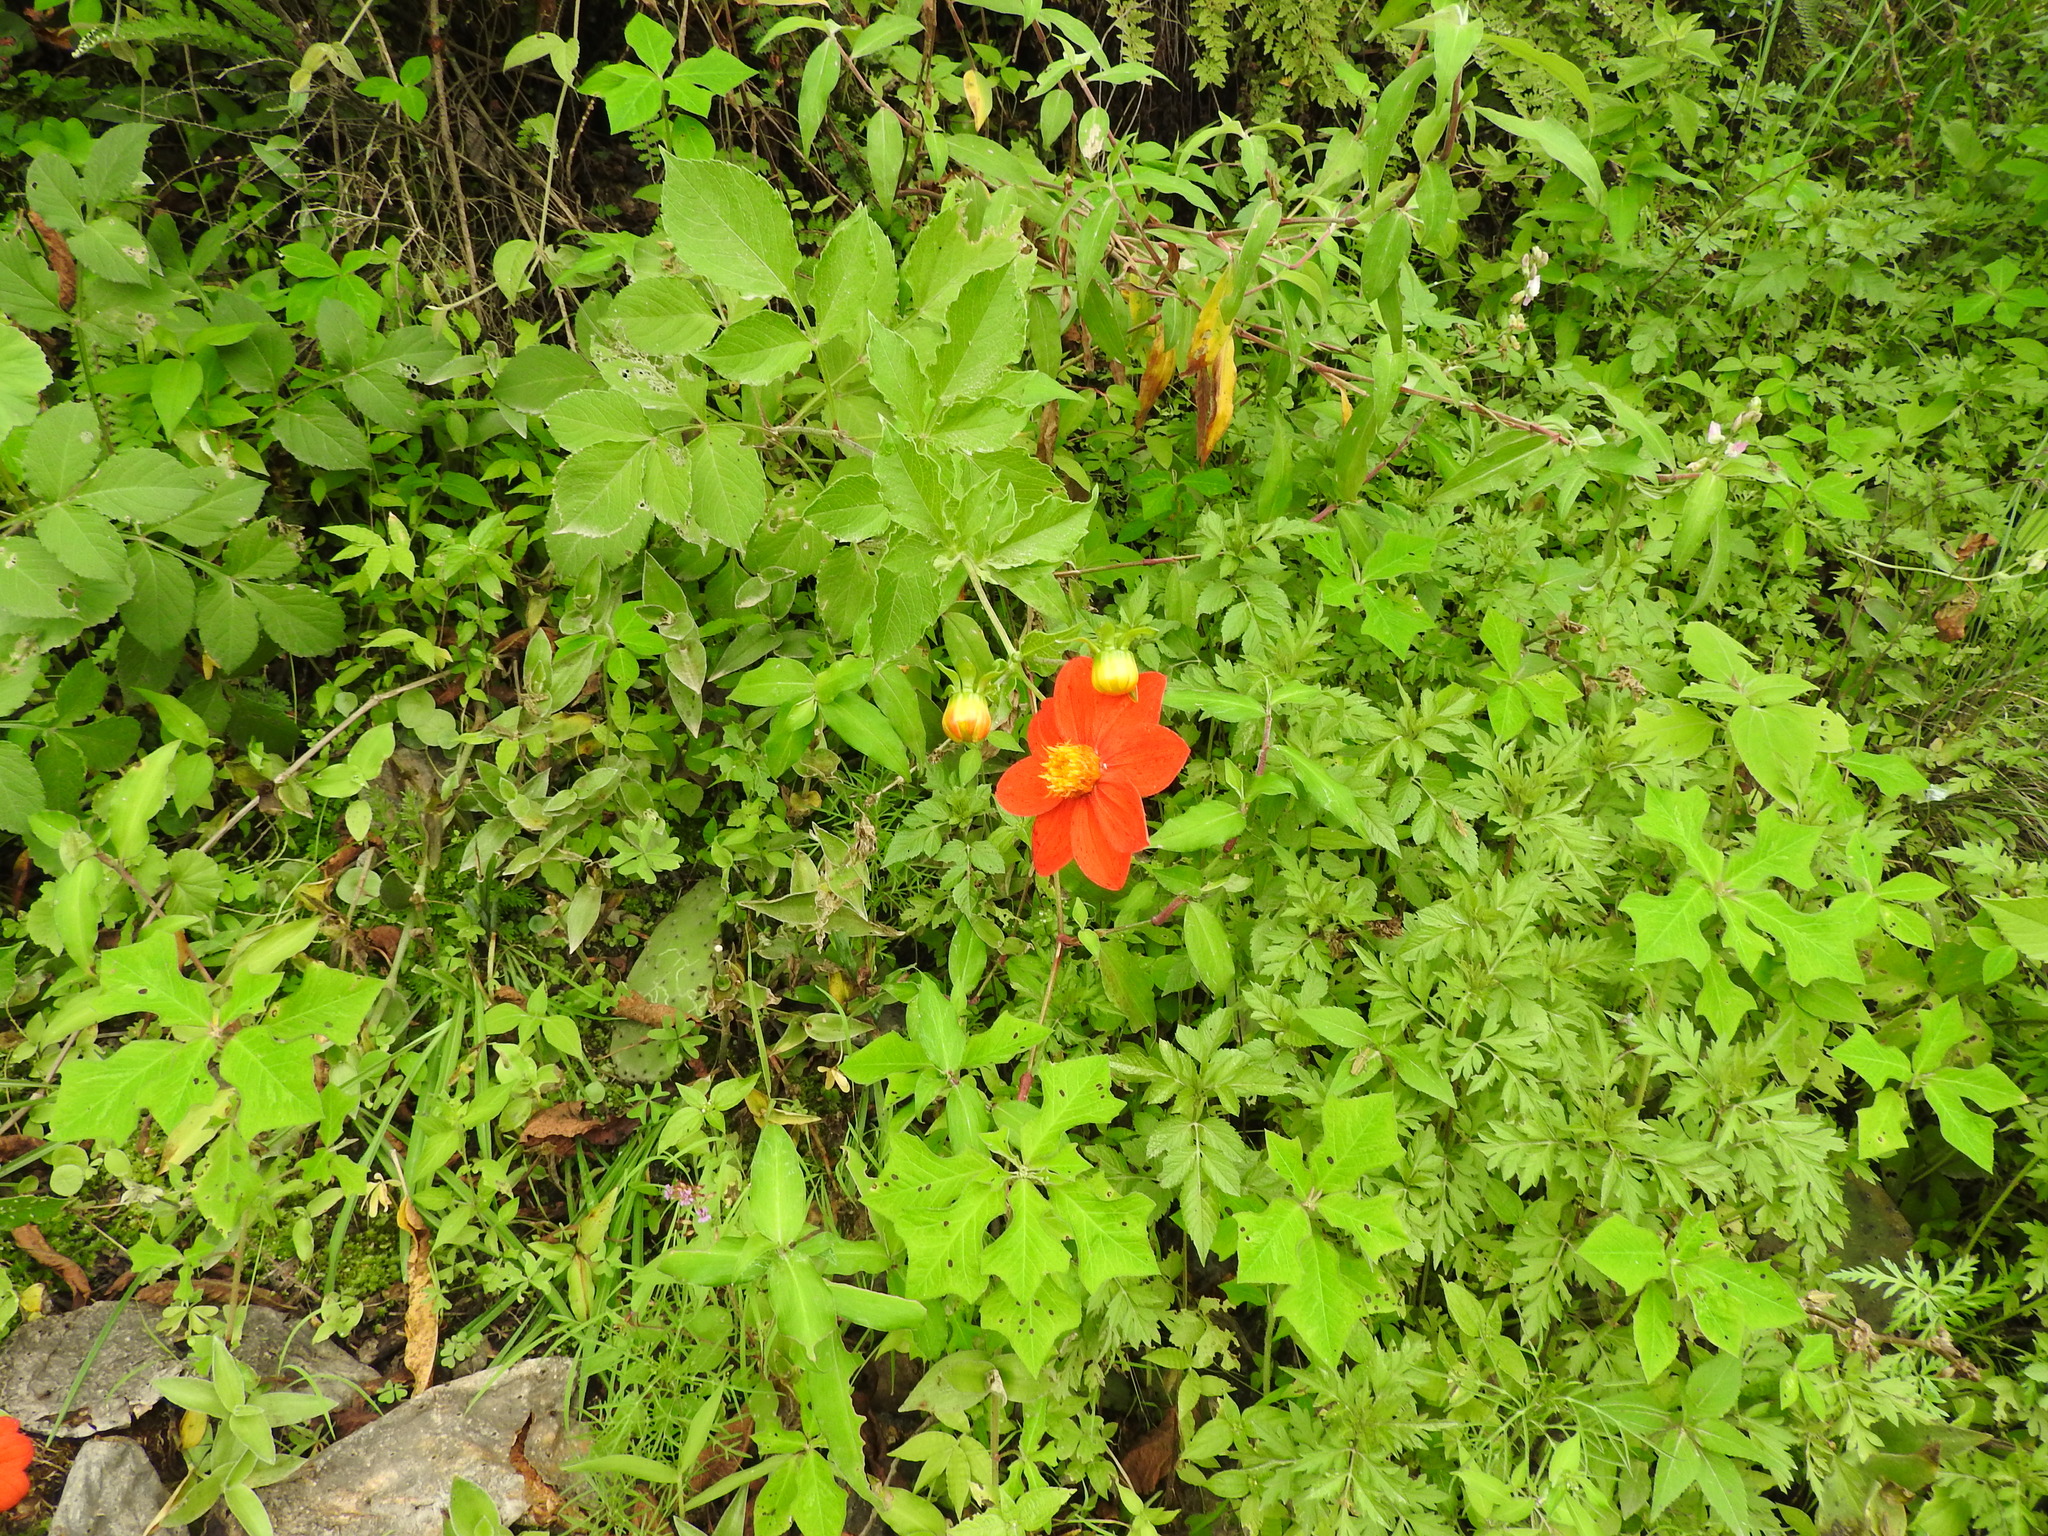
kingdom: Plantae
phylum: Tracheophyta
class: Magnoliopsida
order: Asterales
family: Asteraceae
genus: Dahlia
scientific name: Dahlia coccinea
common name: Red dahlia
